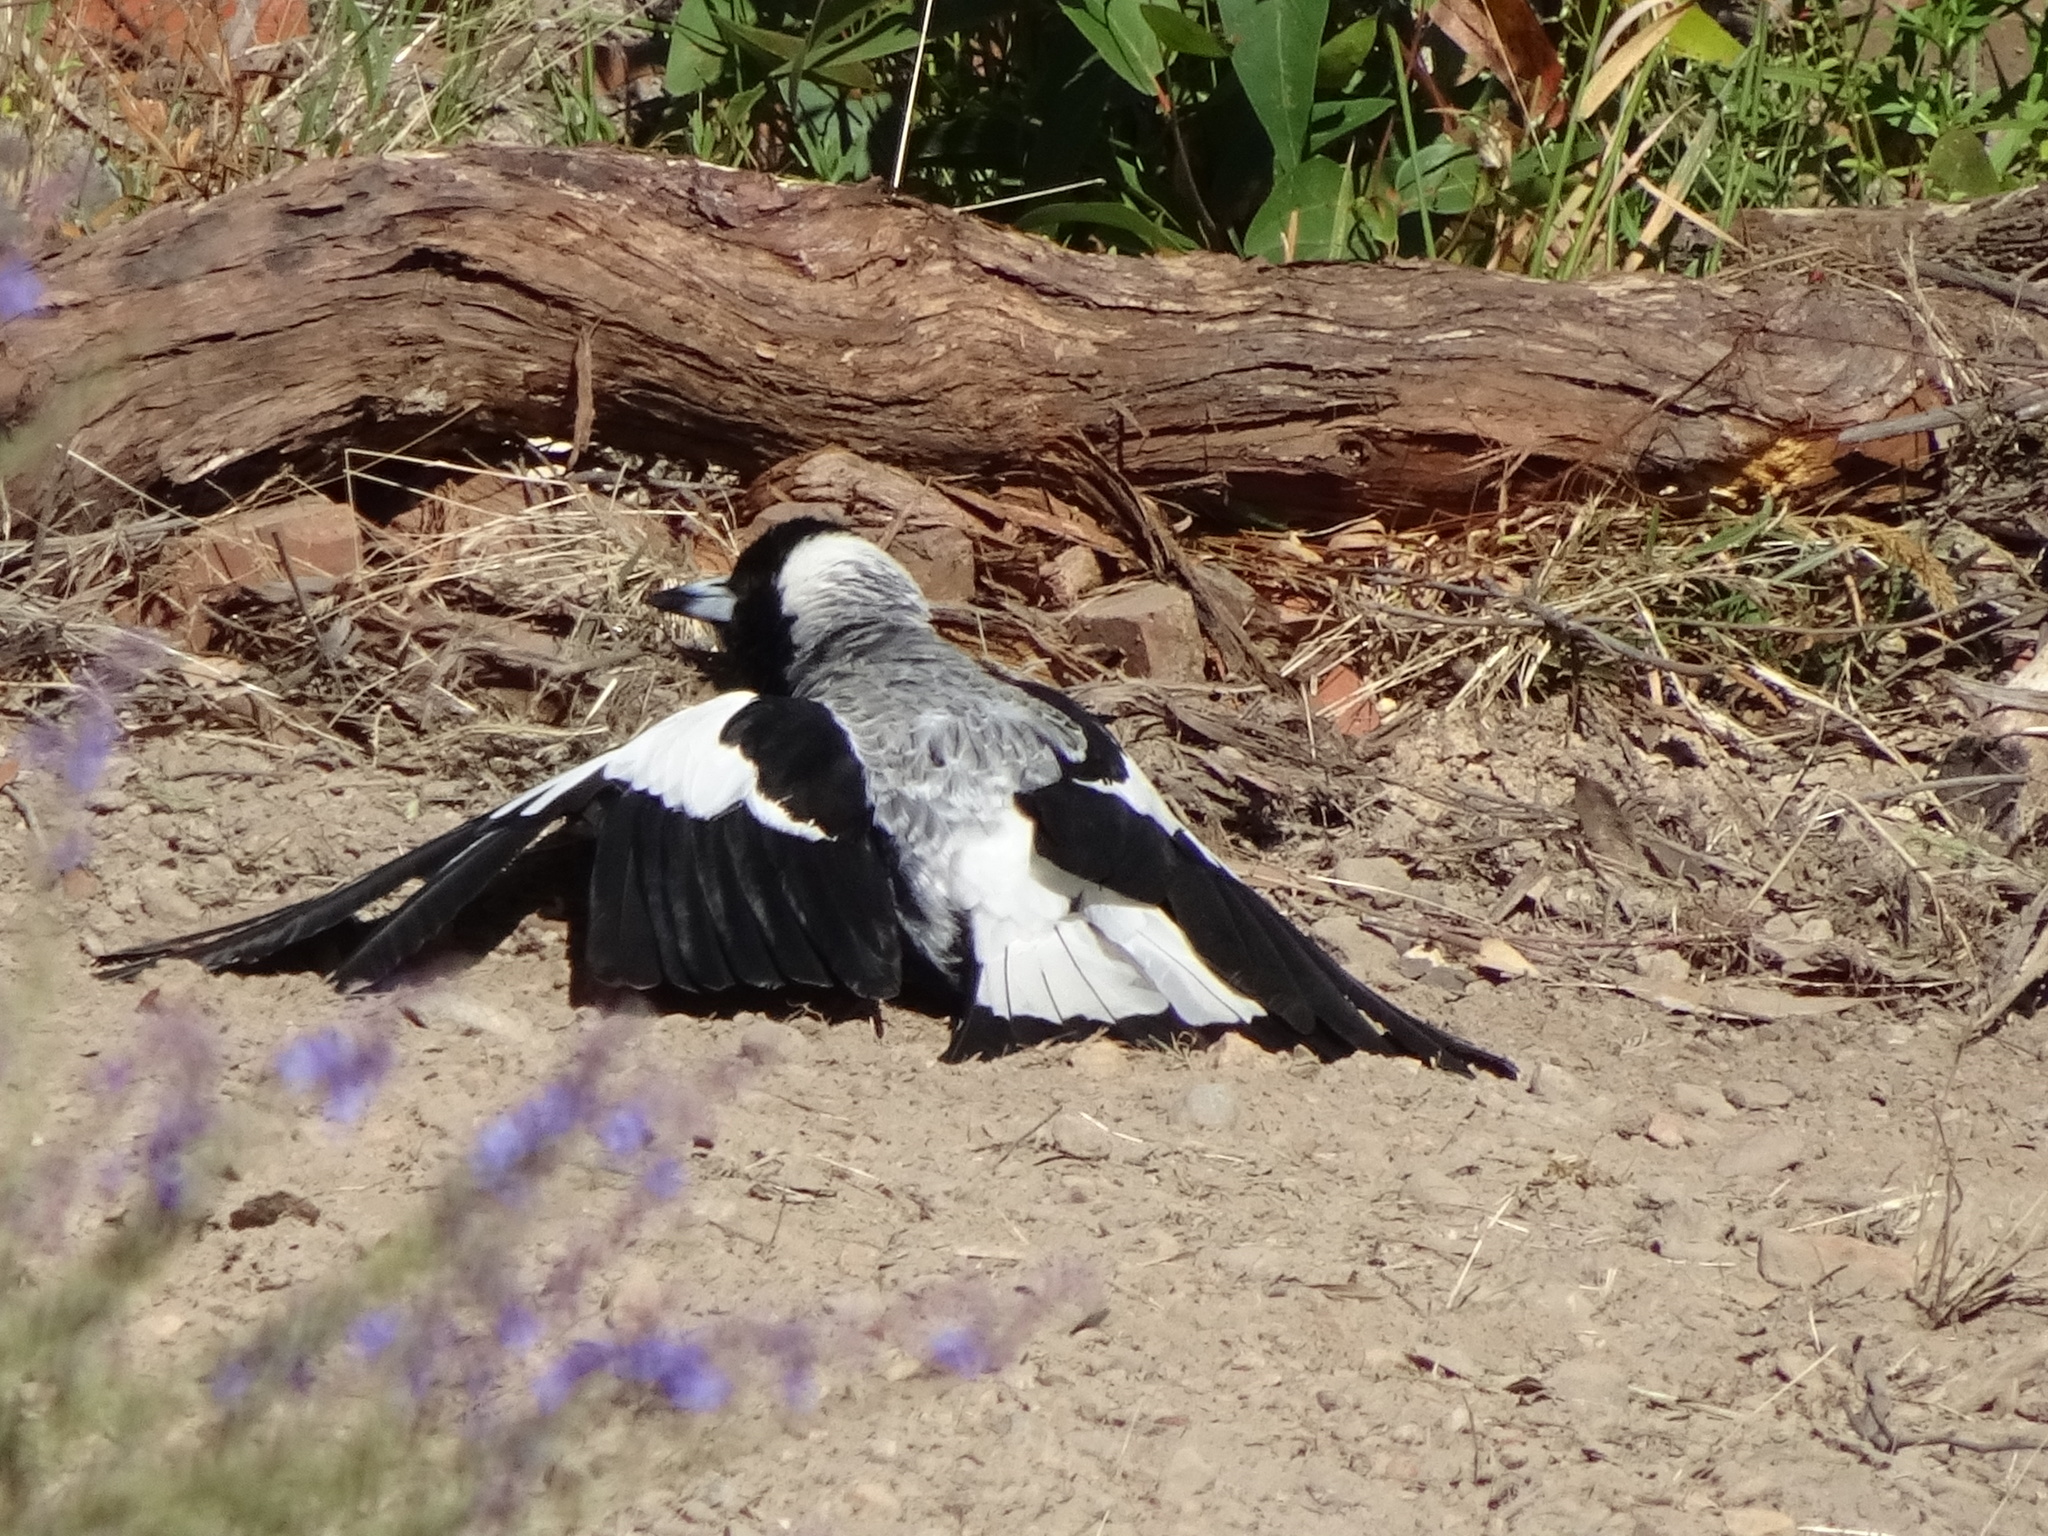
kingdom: Animalia
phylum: Chordata
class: Aves
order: Passeriformes
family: Cracticidae
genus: Gymnorhina
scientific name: Gymnorhina tibicen
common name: Australian magpie
